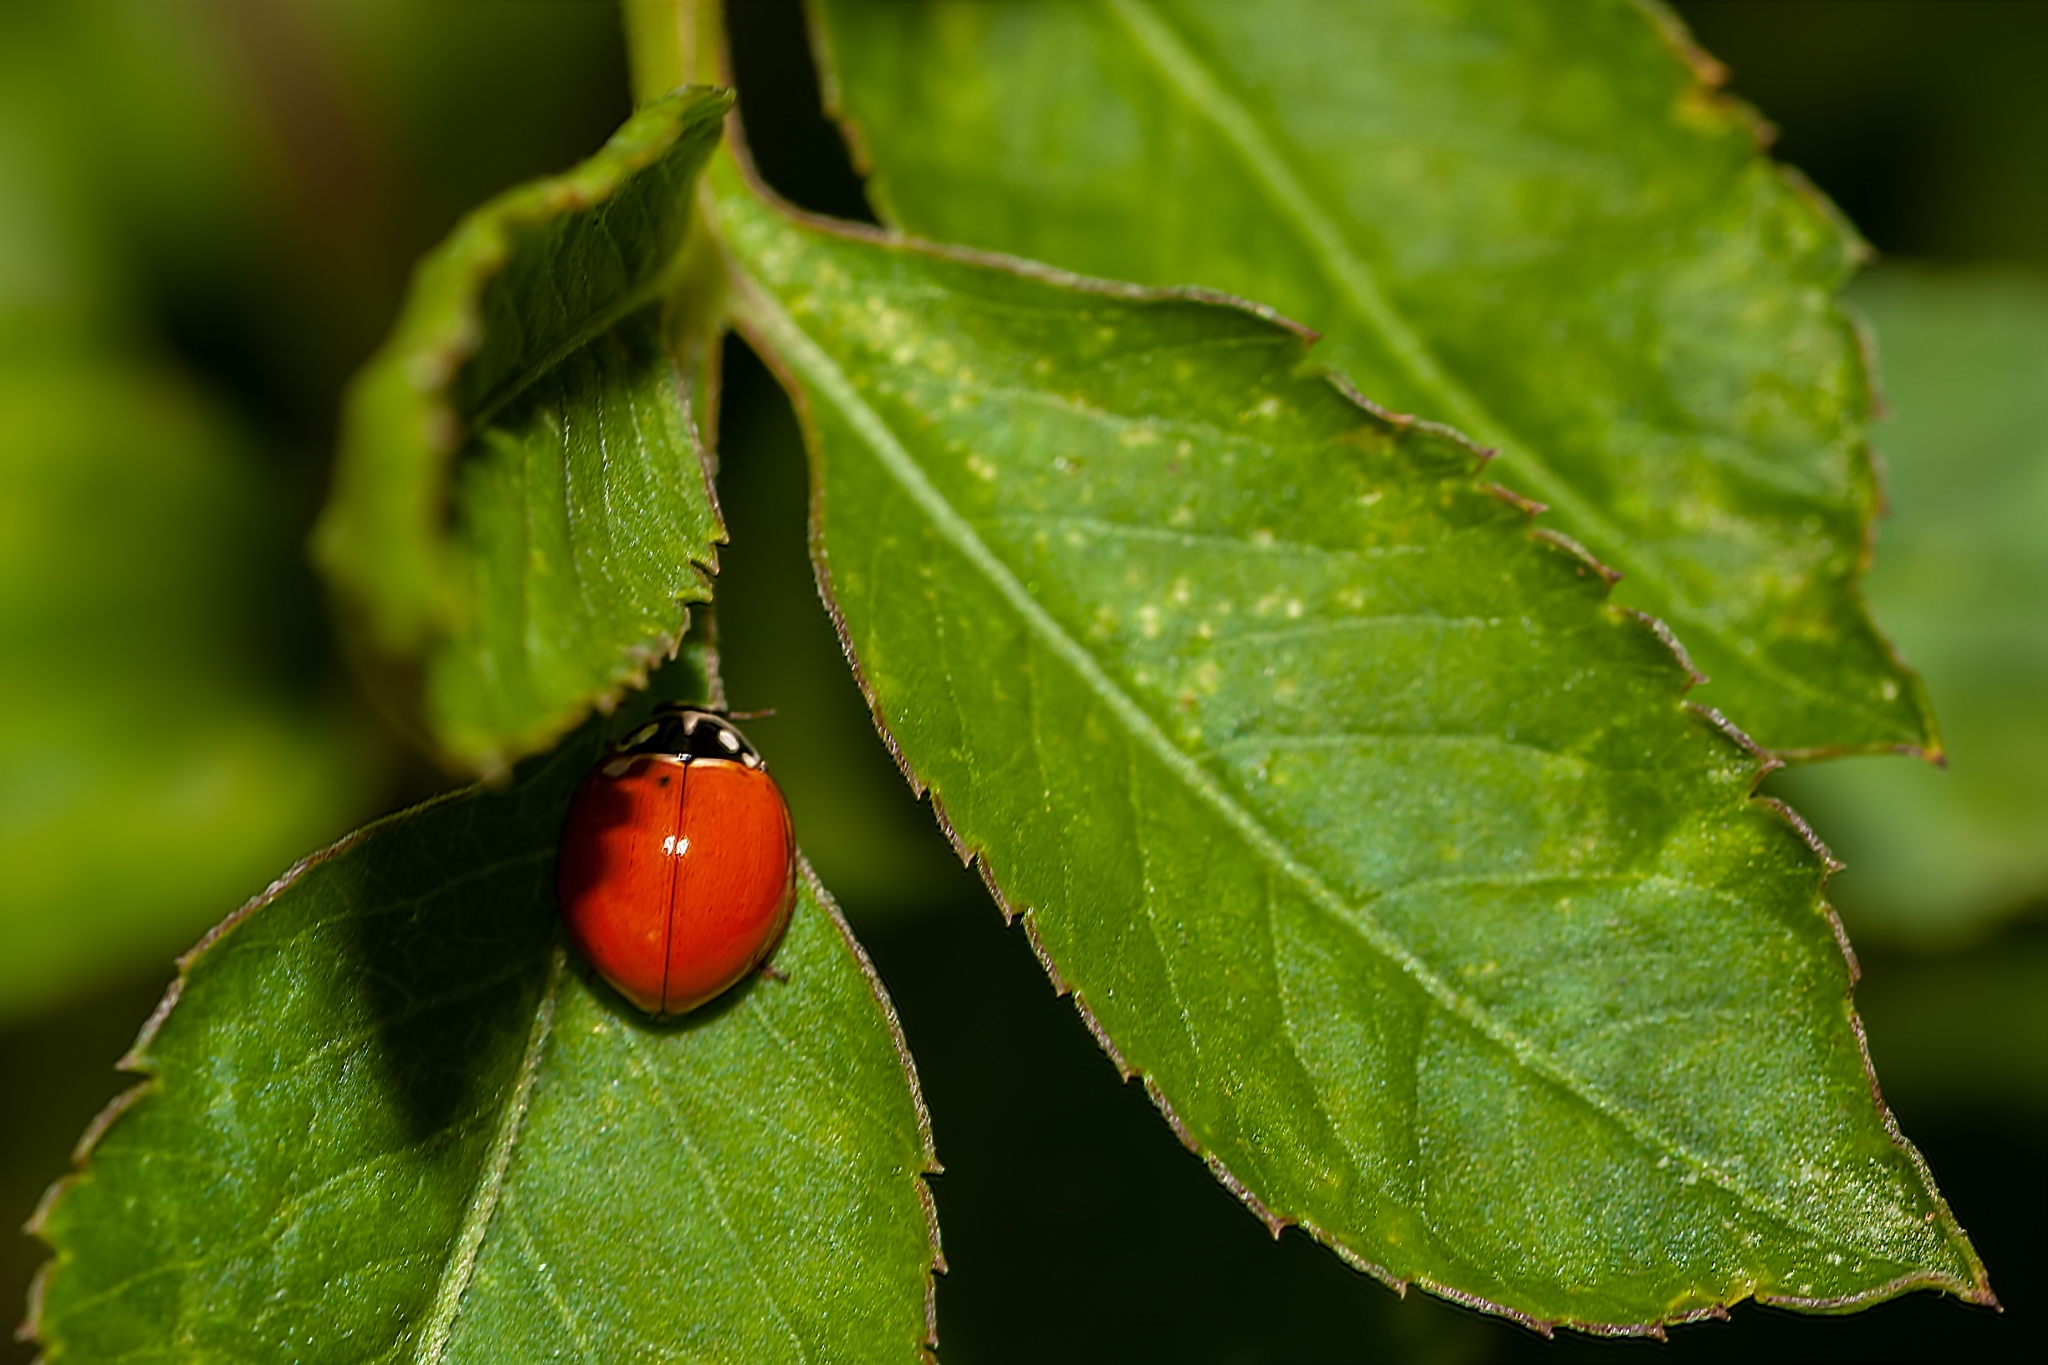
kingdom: Animalia
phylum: Arthropoda
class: Insecta
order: Coleoptera
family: Coccinellidae
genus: Cycloneda
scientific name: Cycloneda sanguinea
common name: Ladybird beetle
